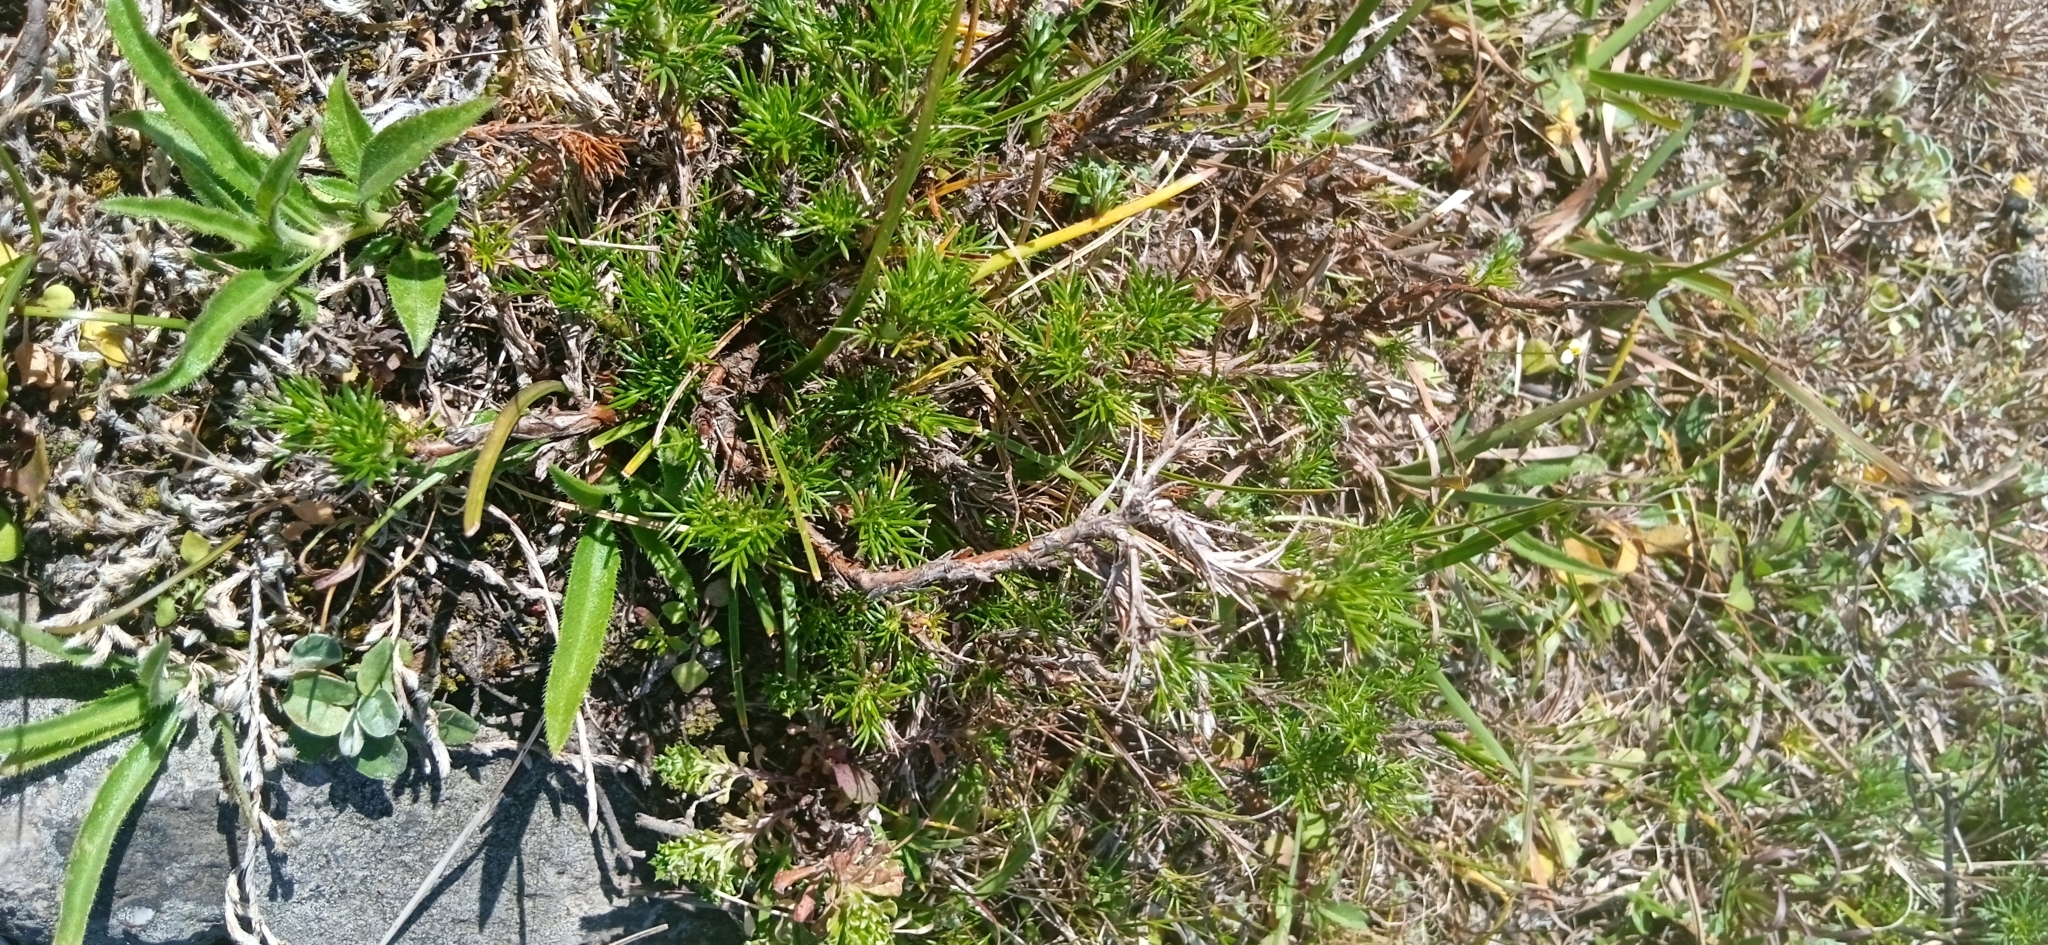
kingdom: Plantae
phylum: Tracheophyta
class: Magnoliopsida
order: Rosales
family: Rosaceae
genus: Margyricarpus
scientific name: Margyricarpus pinnatus
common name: Pearlfruit
